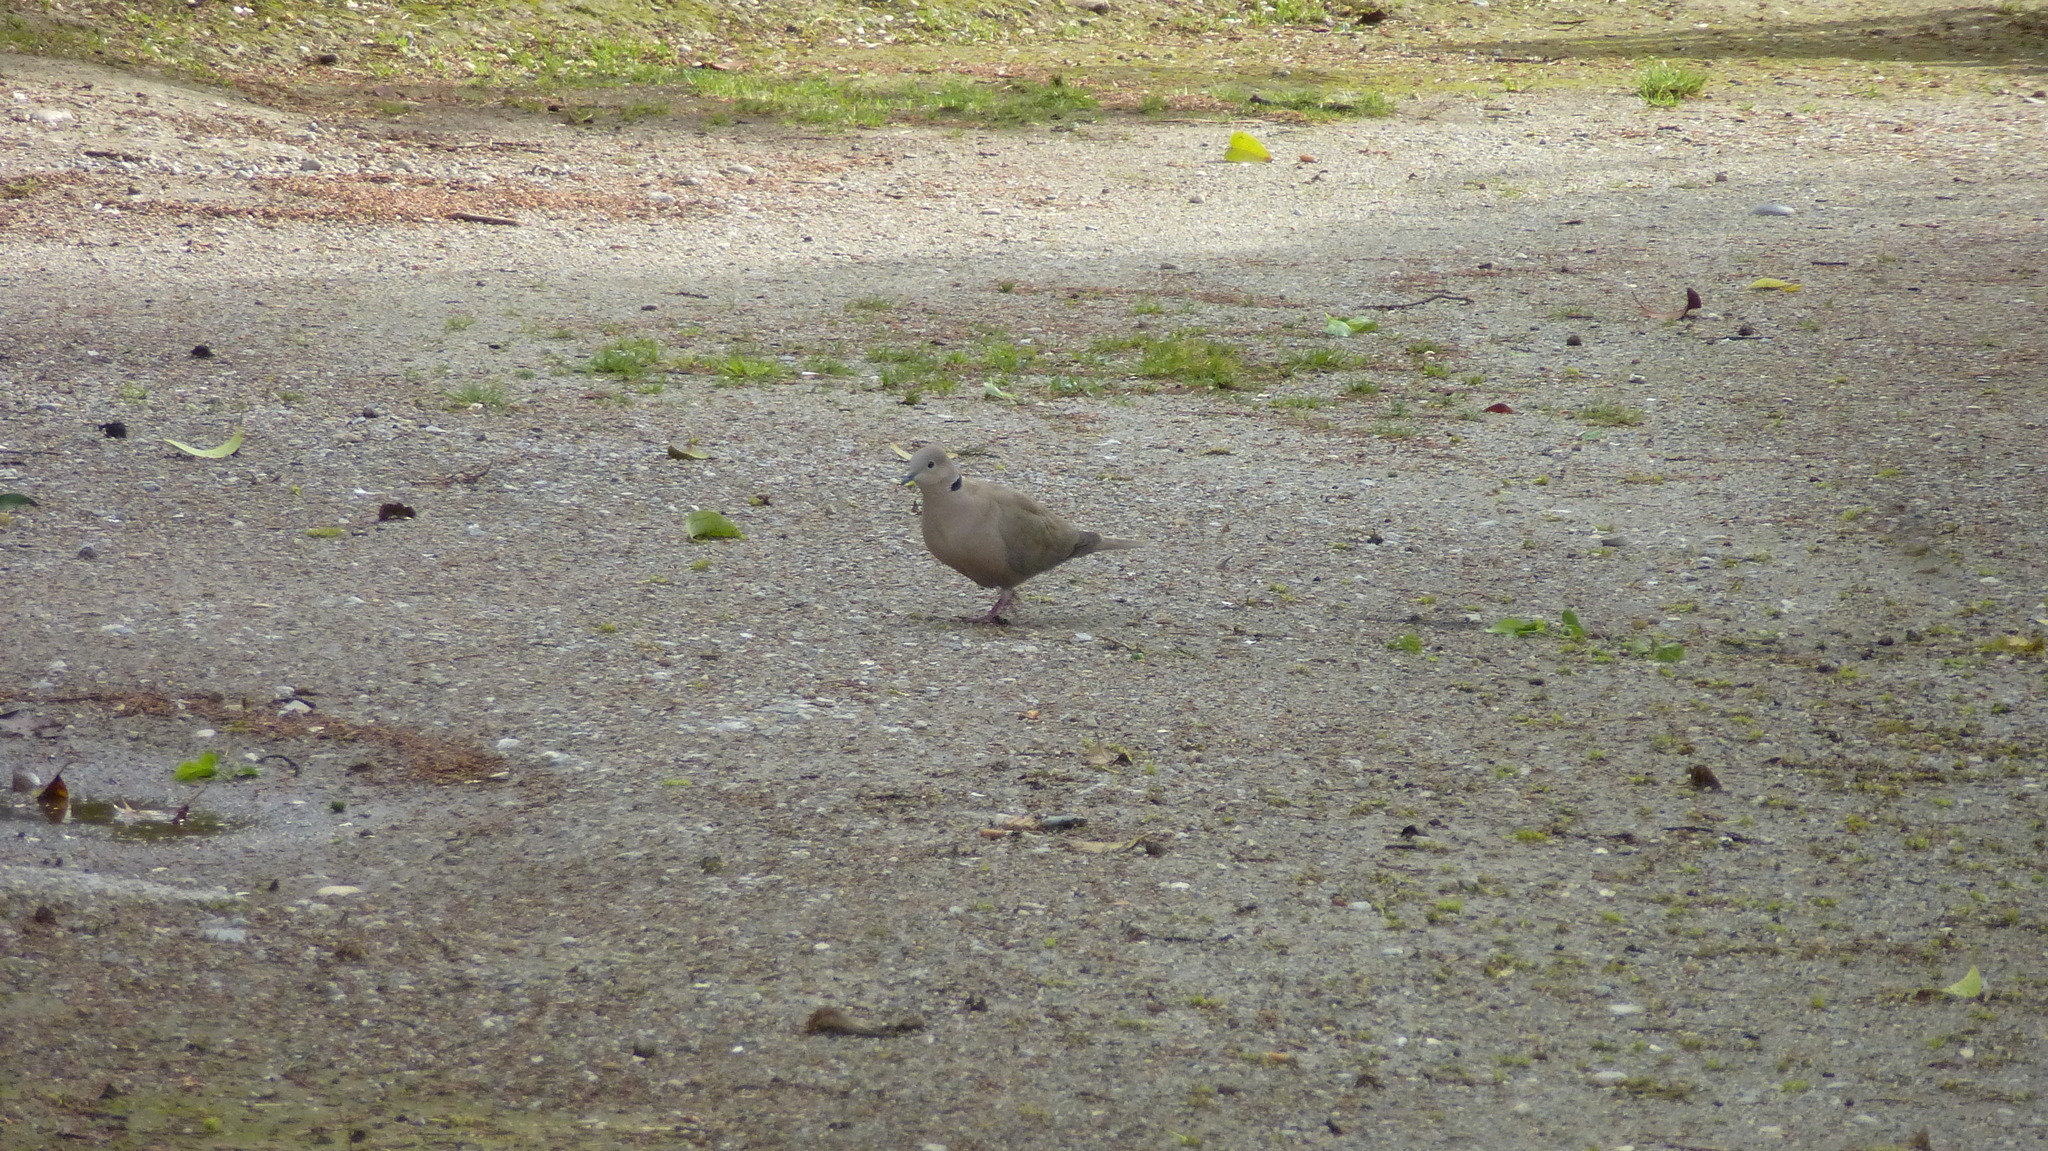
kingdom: Animalia
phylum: Chordata
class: Aves
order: Columbiformes
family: Columbidae
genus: Streptopelia
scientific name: Streptopelia decaocto
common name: Eurasian collared dove
